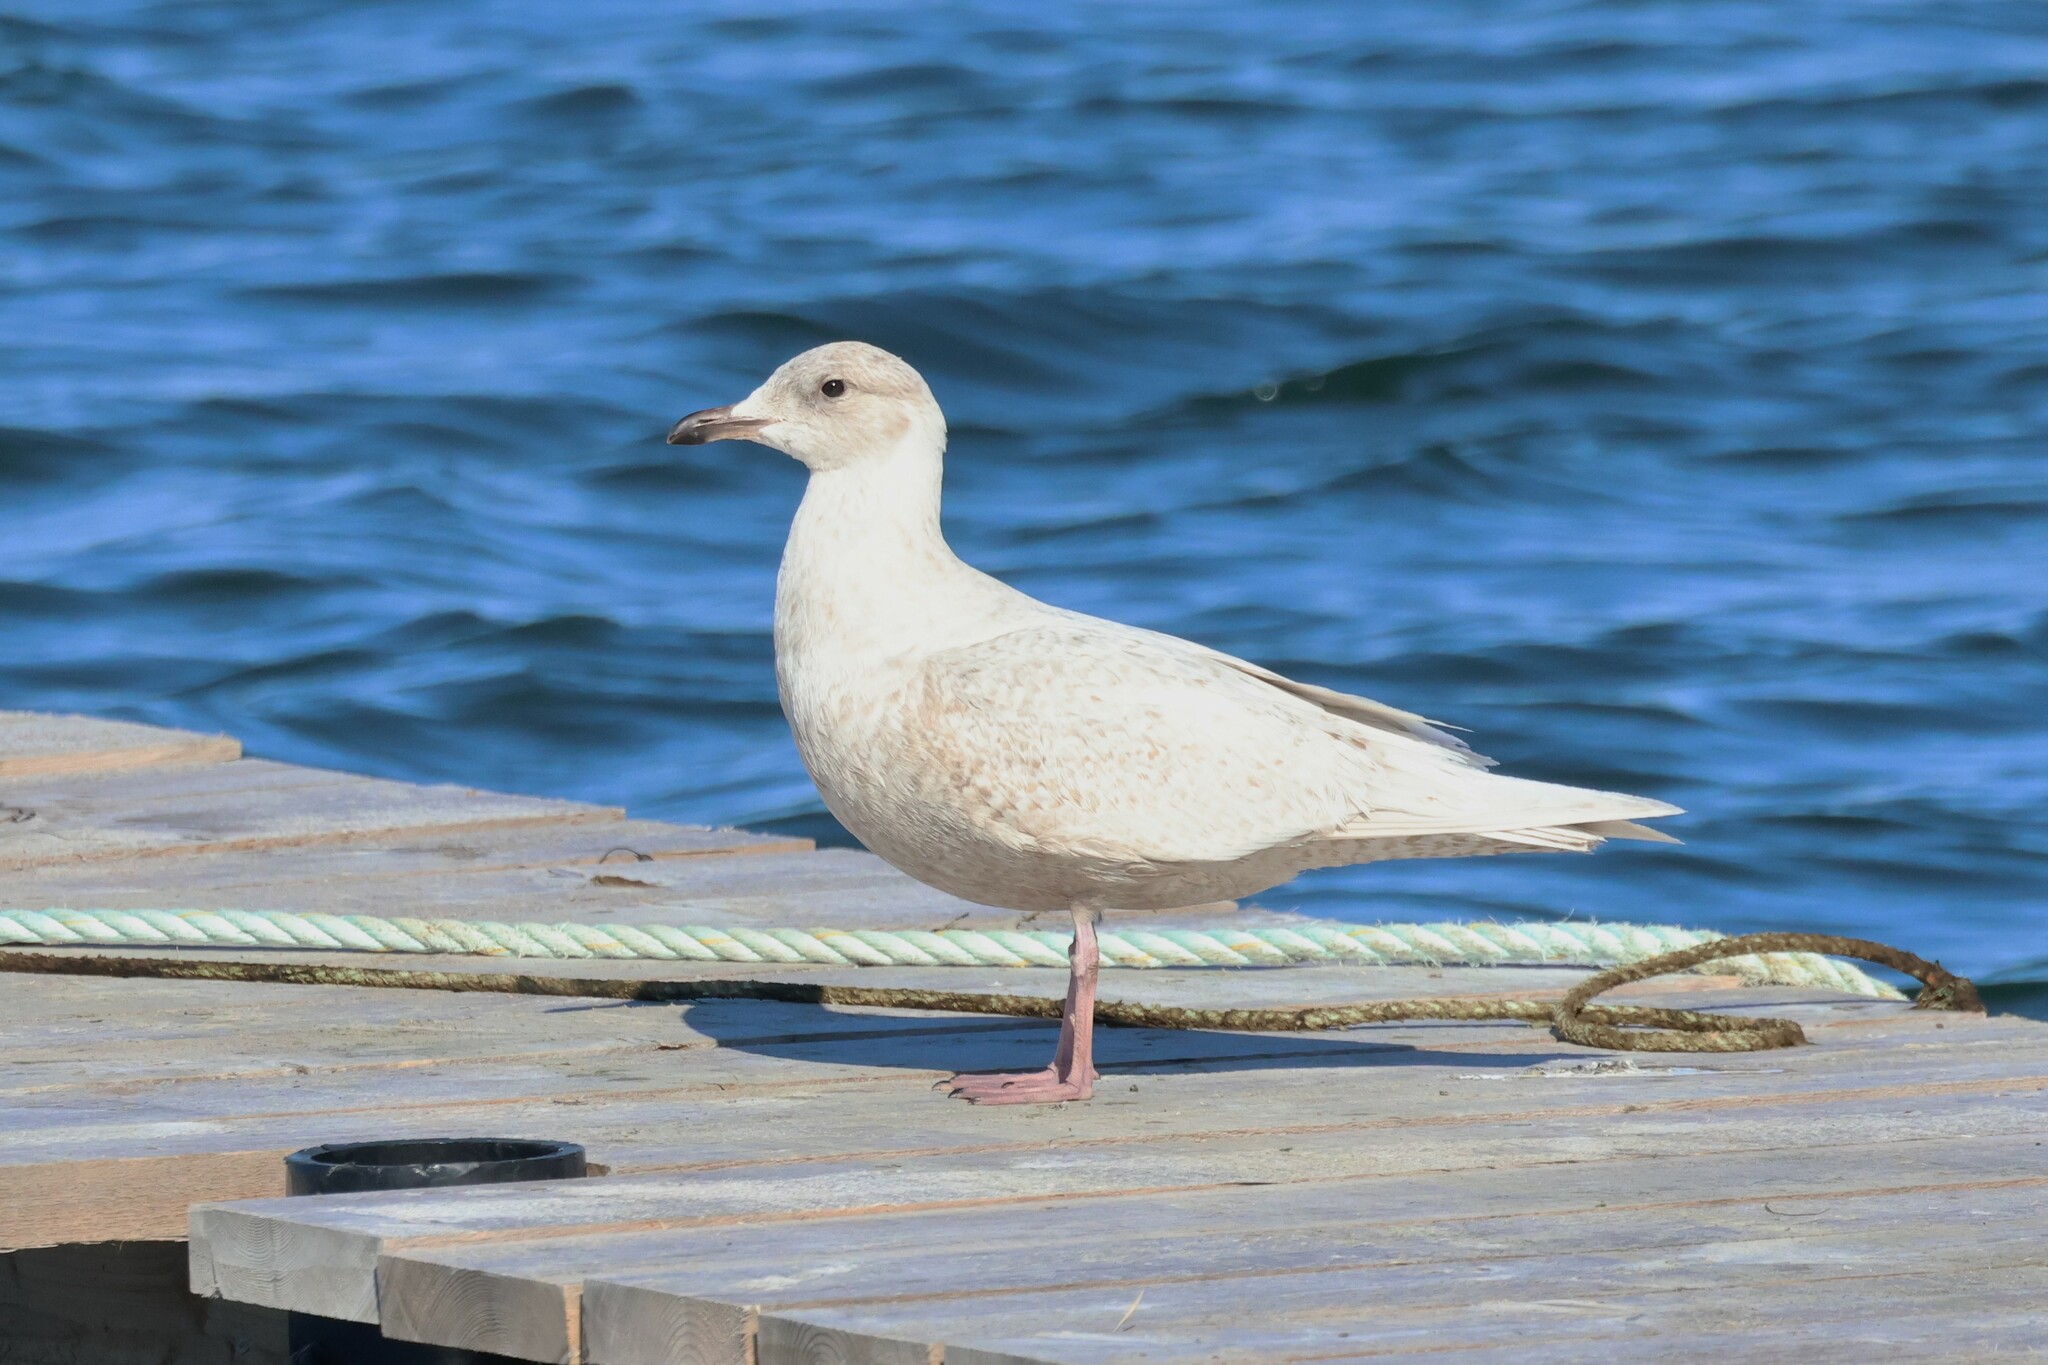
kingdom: Animalia
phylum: Chordata
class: Aves
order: Charadriiformes
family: Laridae
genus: Larus
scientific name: Larus glaucoides
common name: Iceland gull
